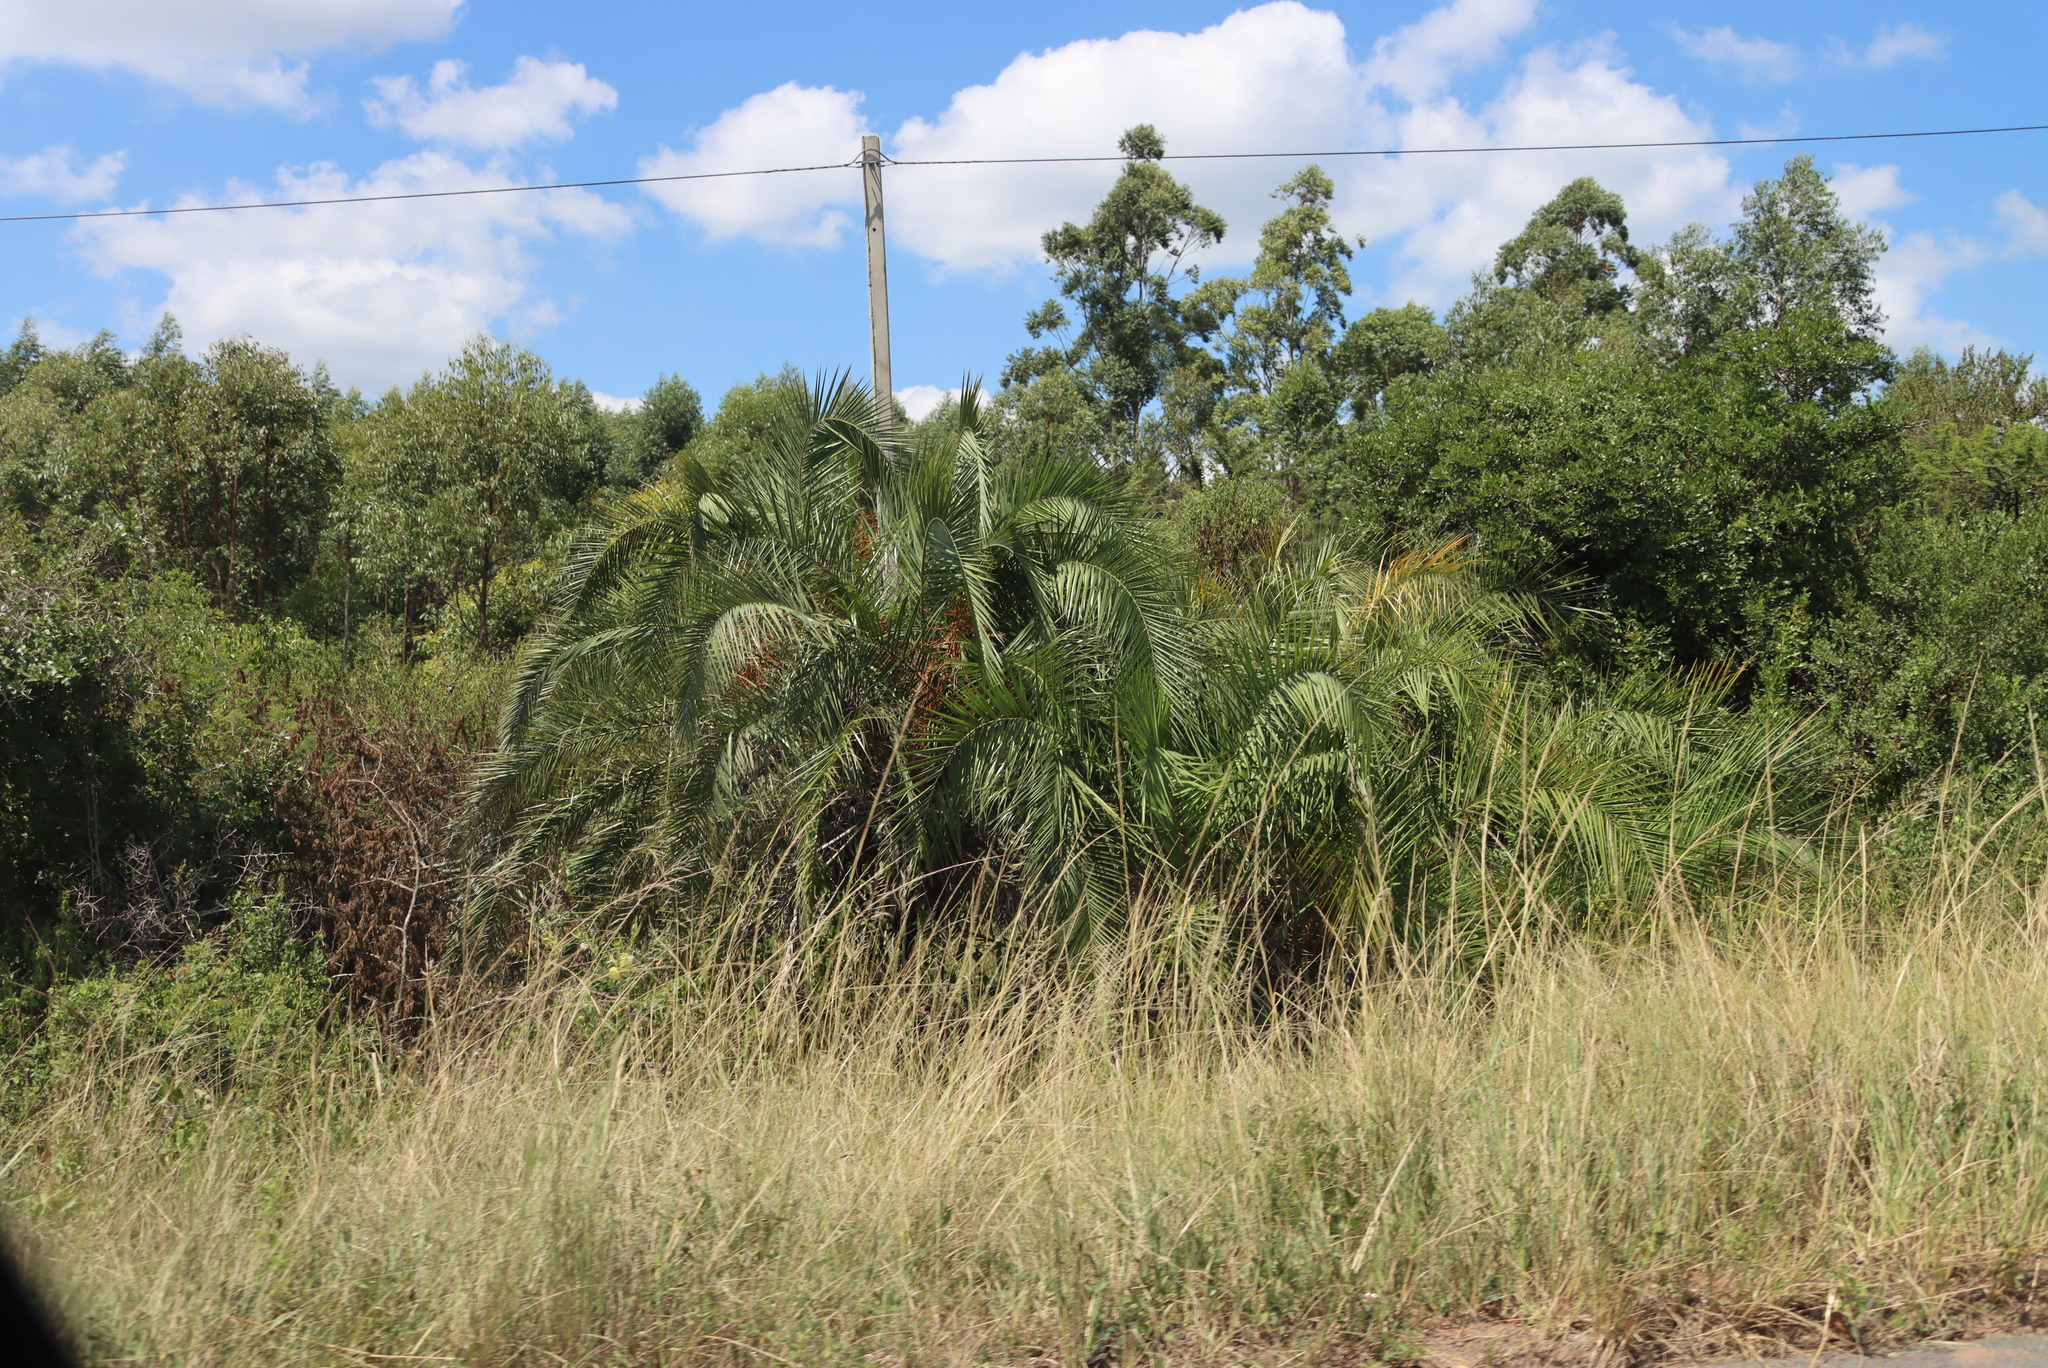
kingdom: Plantae
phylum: Tracheophyta
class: Liliopsida
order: Arecales
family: Arecaceae
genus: Phoenix
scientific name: Phoenix reclinata
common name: Senegal date palm
